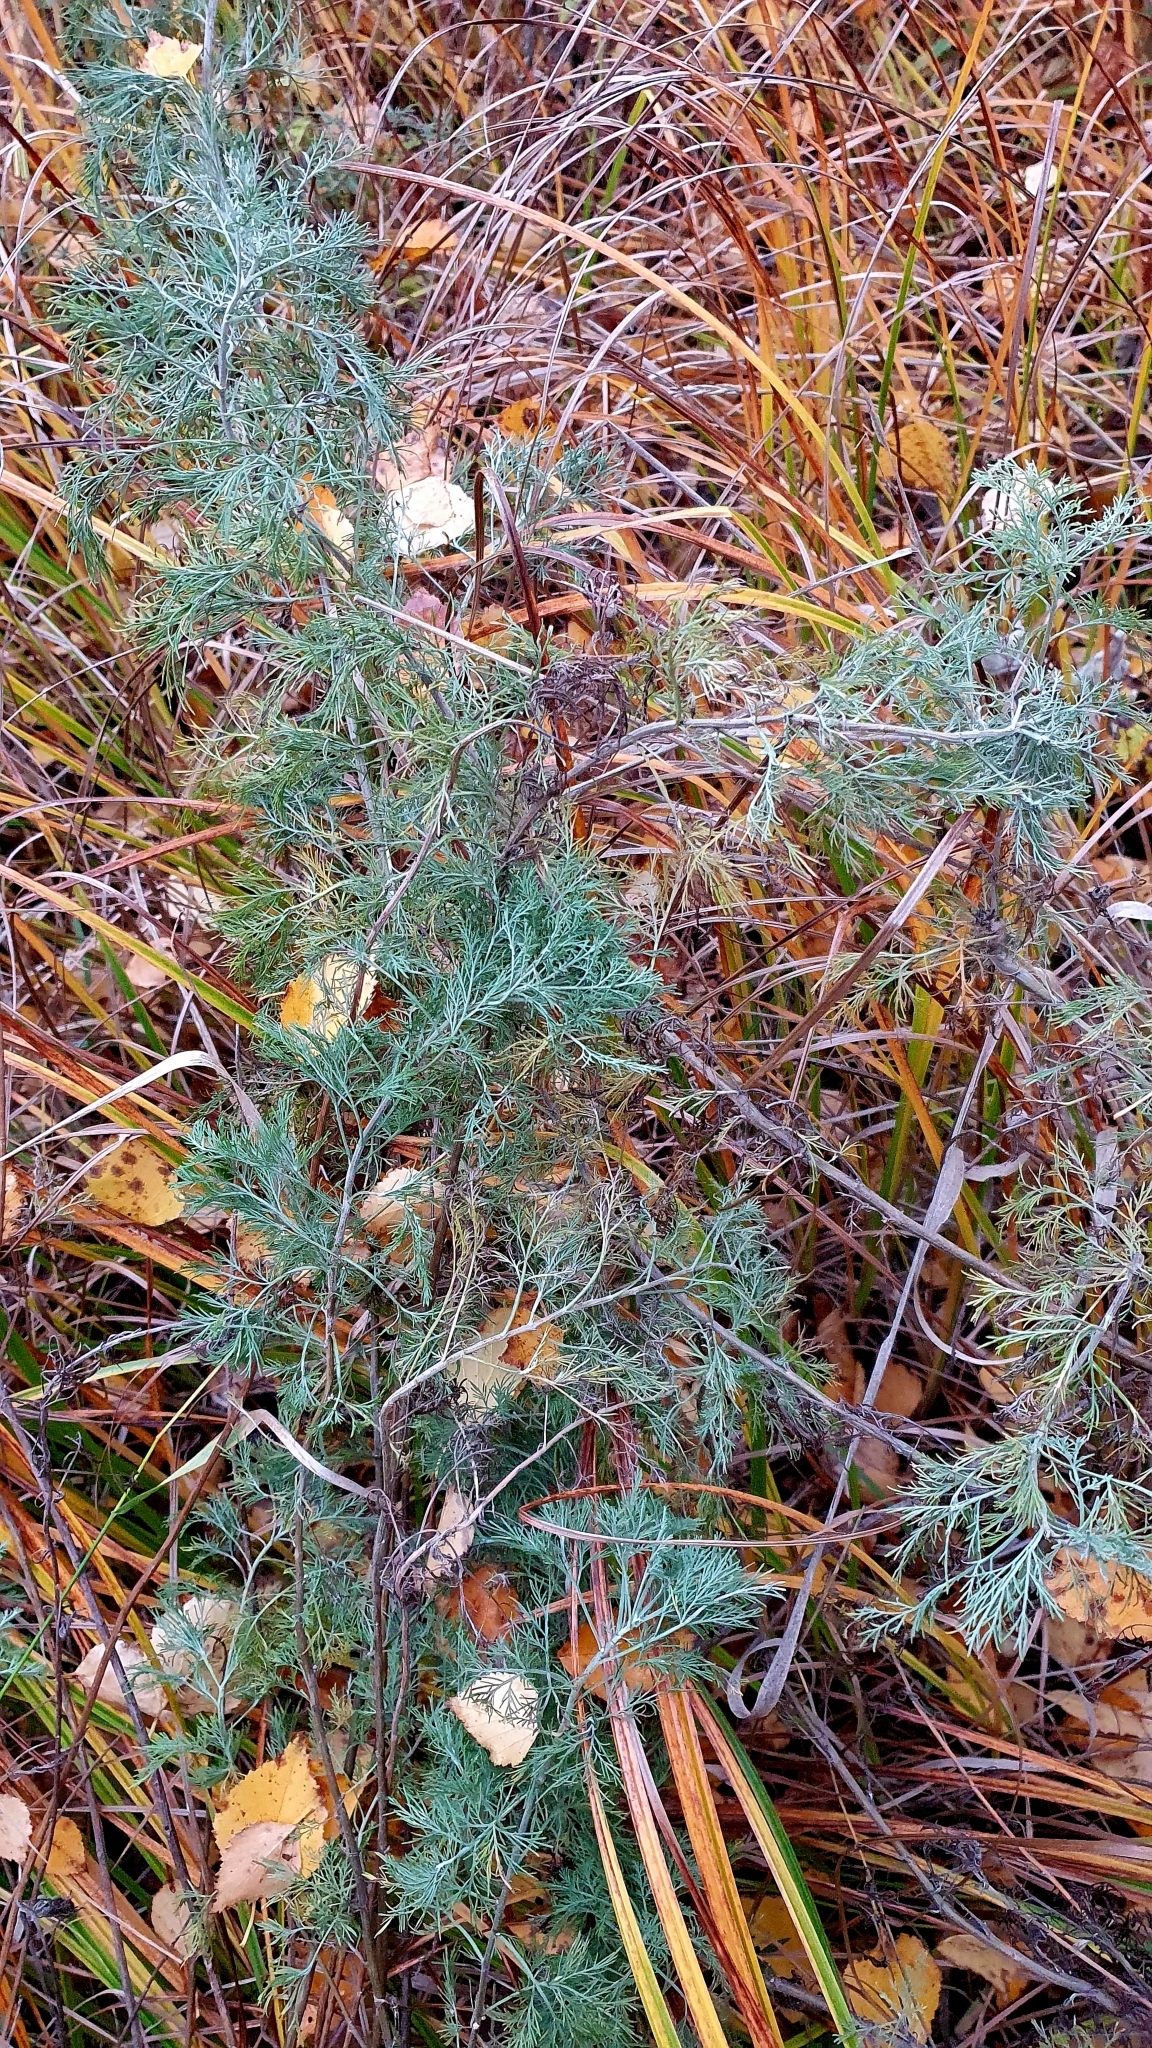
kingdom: Plantae
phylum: Tracheophyta
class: Magnoliopsida
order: Asterales
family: Asteraceae
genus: Artemisia
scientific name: Artemisia abrotanum
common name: Southernwood
